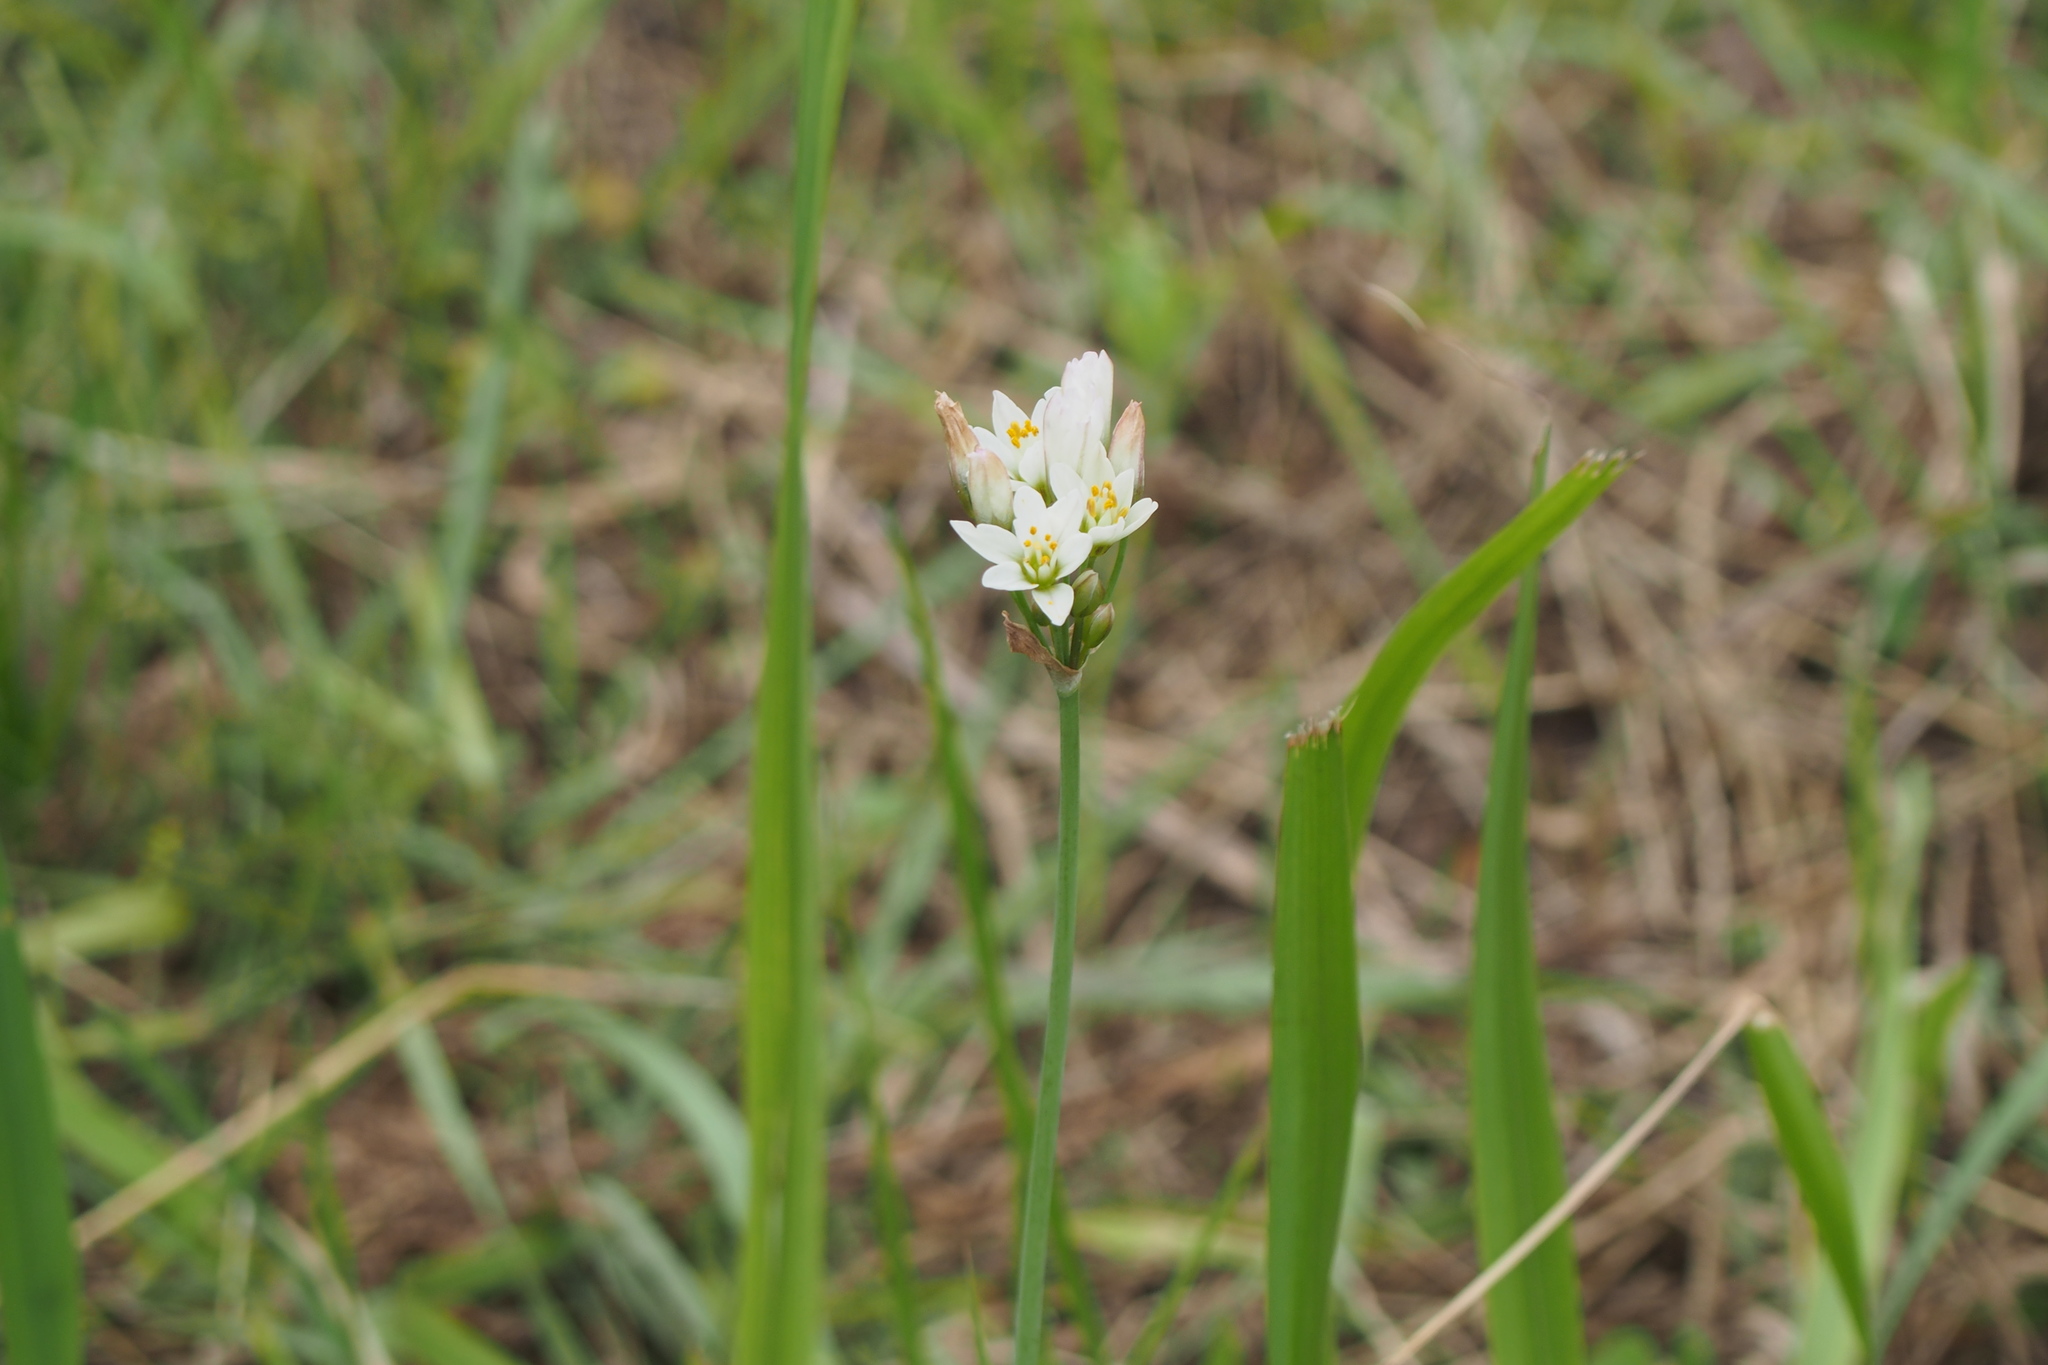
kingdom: Plantae
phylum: Tracheophyta
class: Liliopsida
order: Asparagales
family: Amaryllidaceae
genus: Nothoscordum
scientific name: Nothoscordum gracile
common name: Slender false garlic
